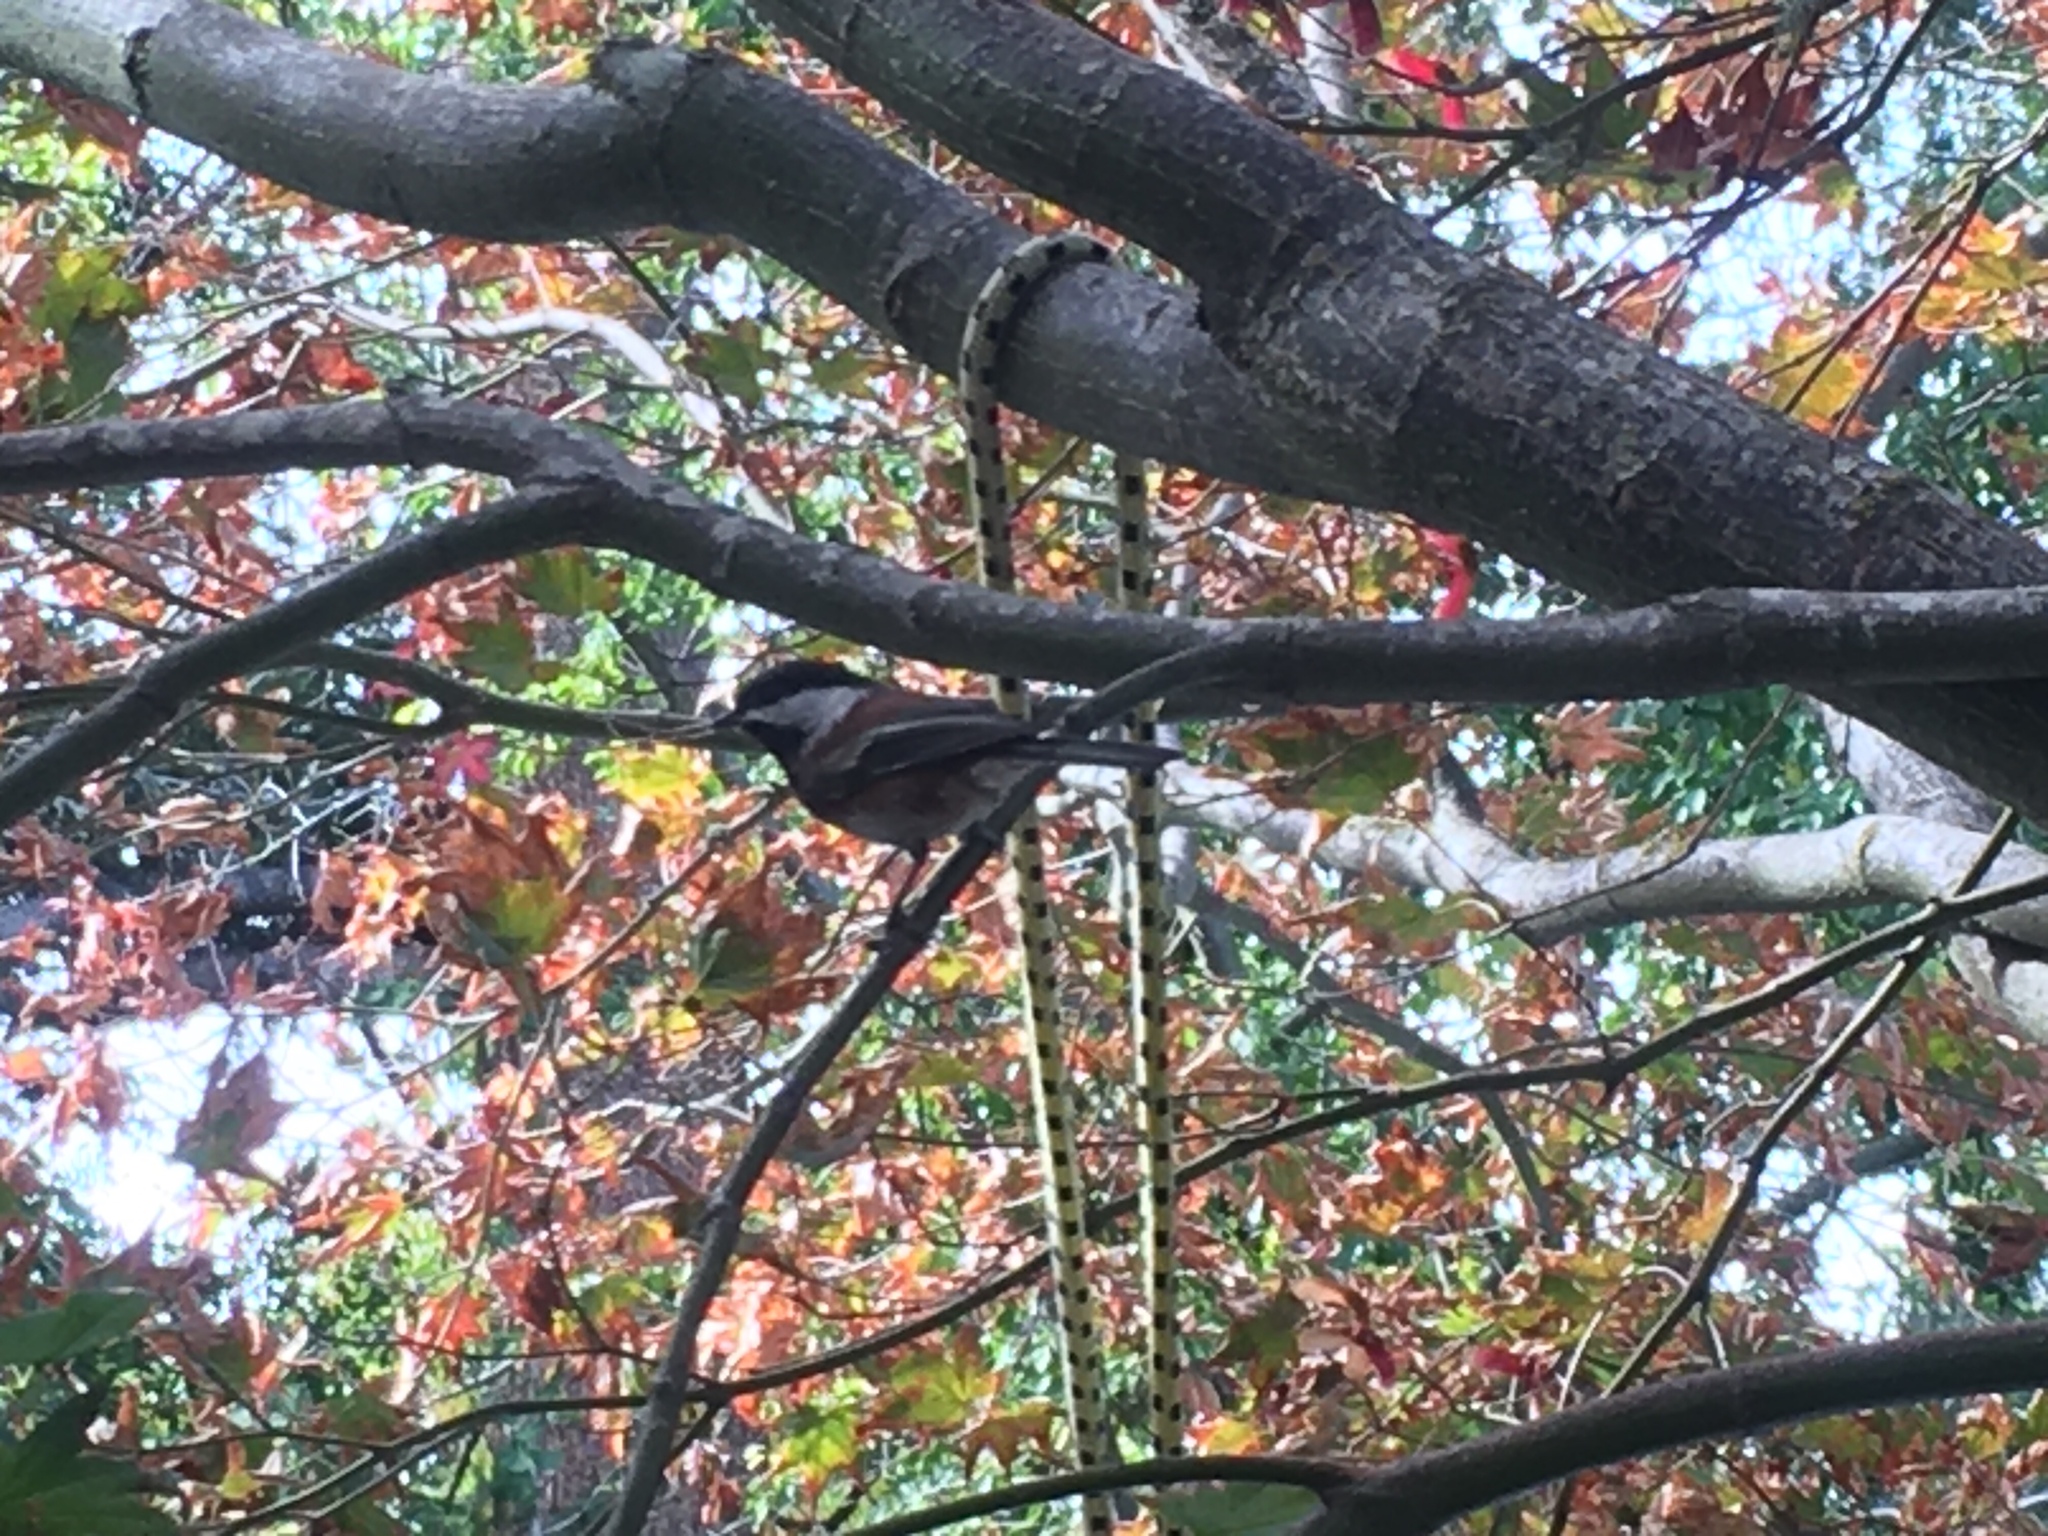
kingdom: Animalia
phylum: Chordata
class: Aves
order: Passeriformes
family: Paridae
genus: Poecile
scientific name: Poecile rufescens
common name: Chestnut-backed chickadee
